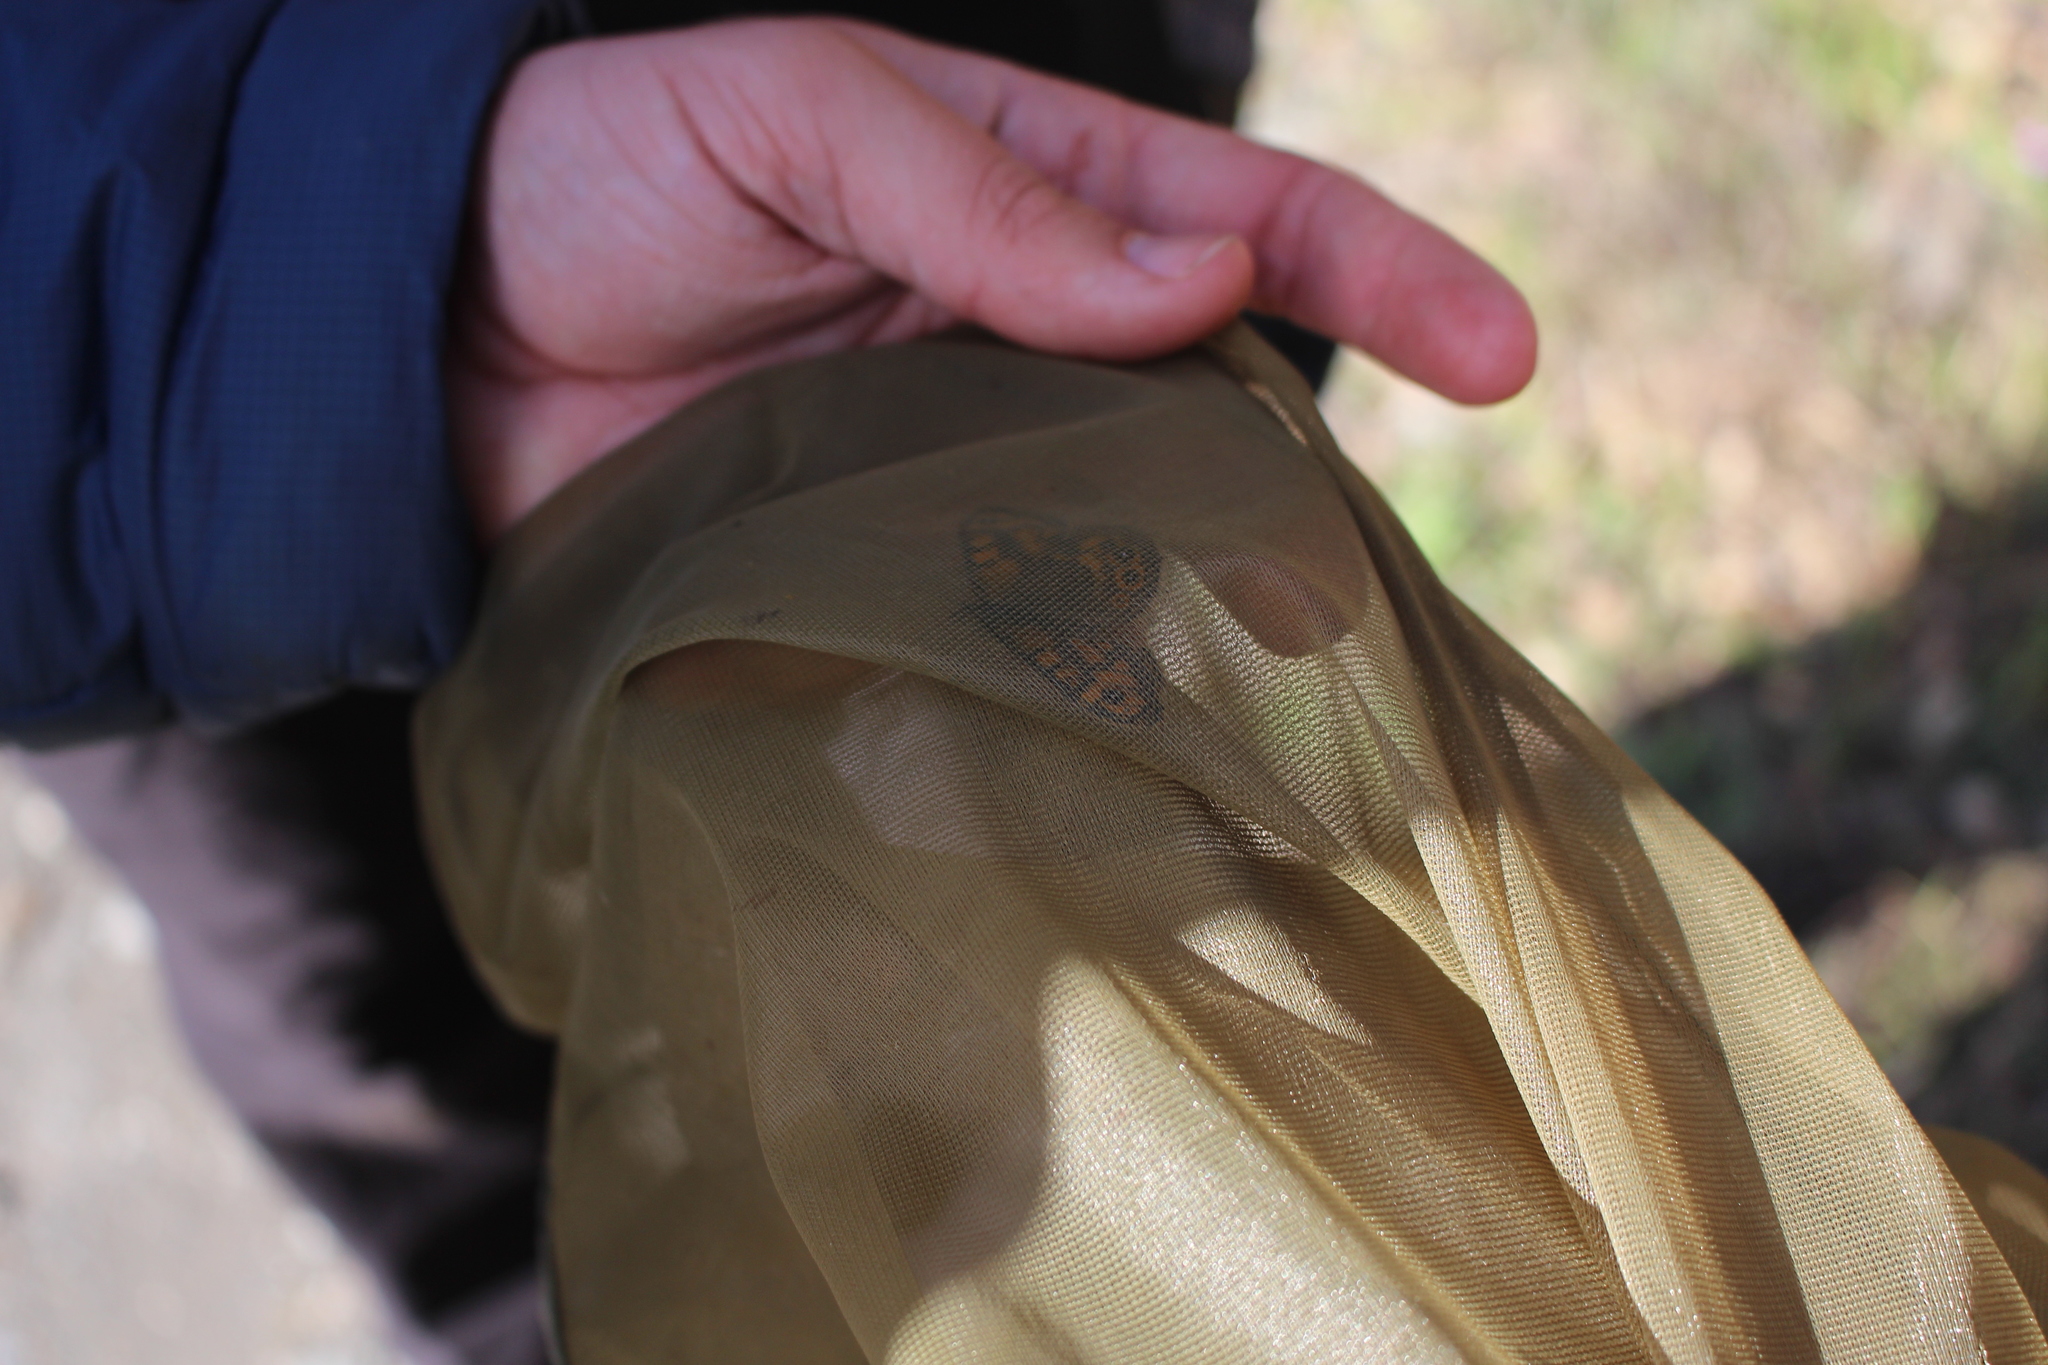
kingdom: Animalia
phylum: Arthropoda
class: Insecta
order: Lepidoptera
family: Nymphalidae
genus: Pararge
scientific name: Pararge Lasiommata megera
